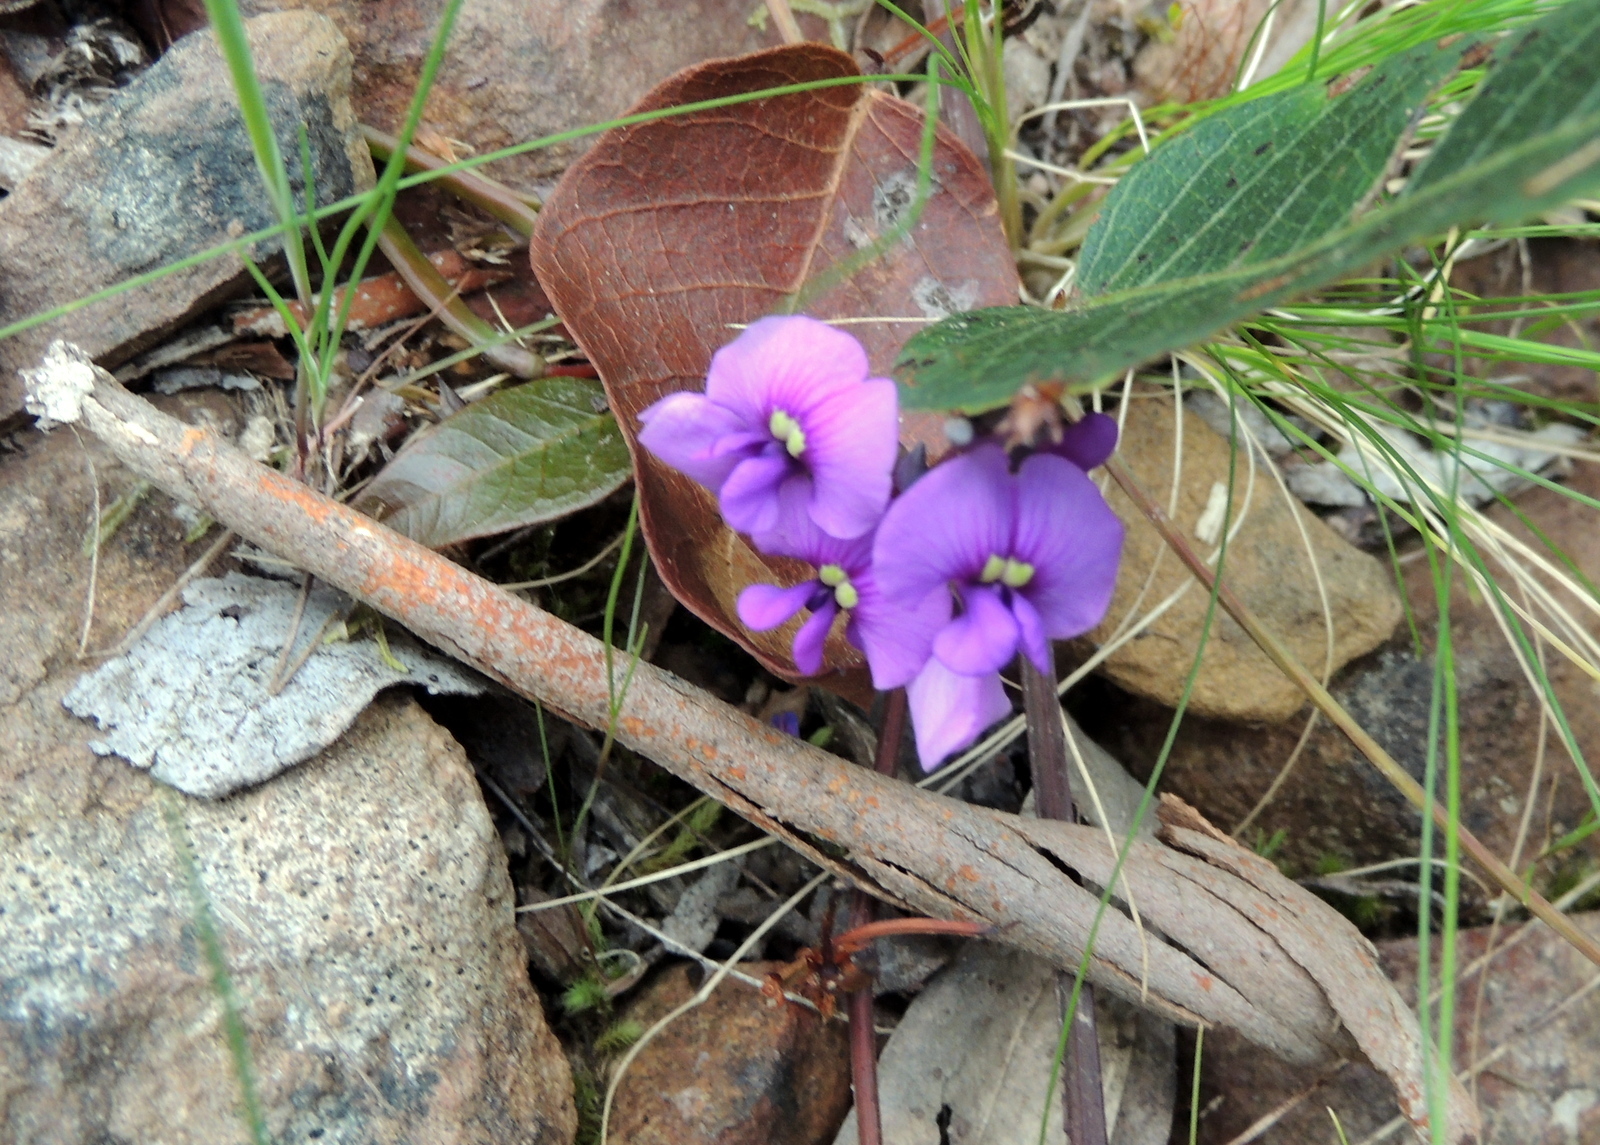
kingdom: Plantae
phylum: Tracheophyta
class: Magnoliopsida
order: Fabales
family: Fabaceae
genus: Hardenbergia
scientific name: Hardenbergia violacea
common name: Coral-pea
